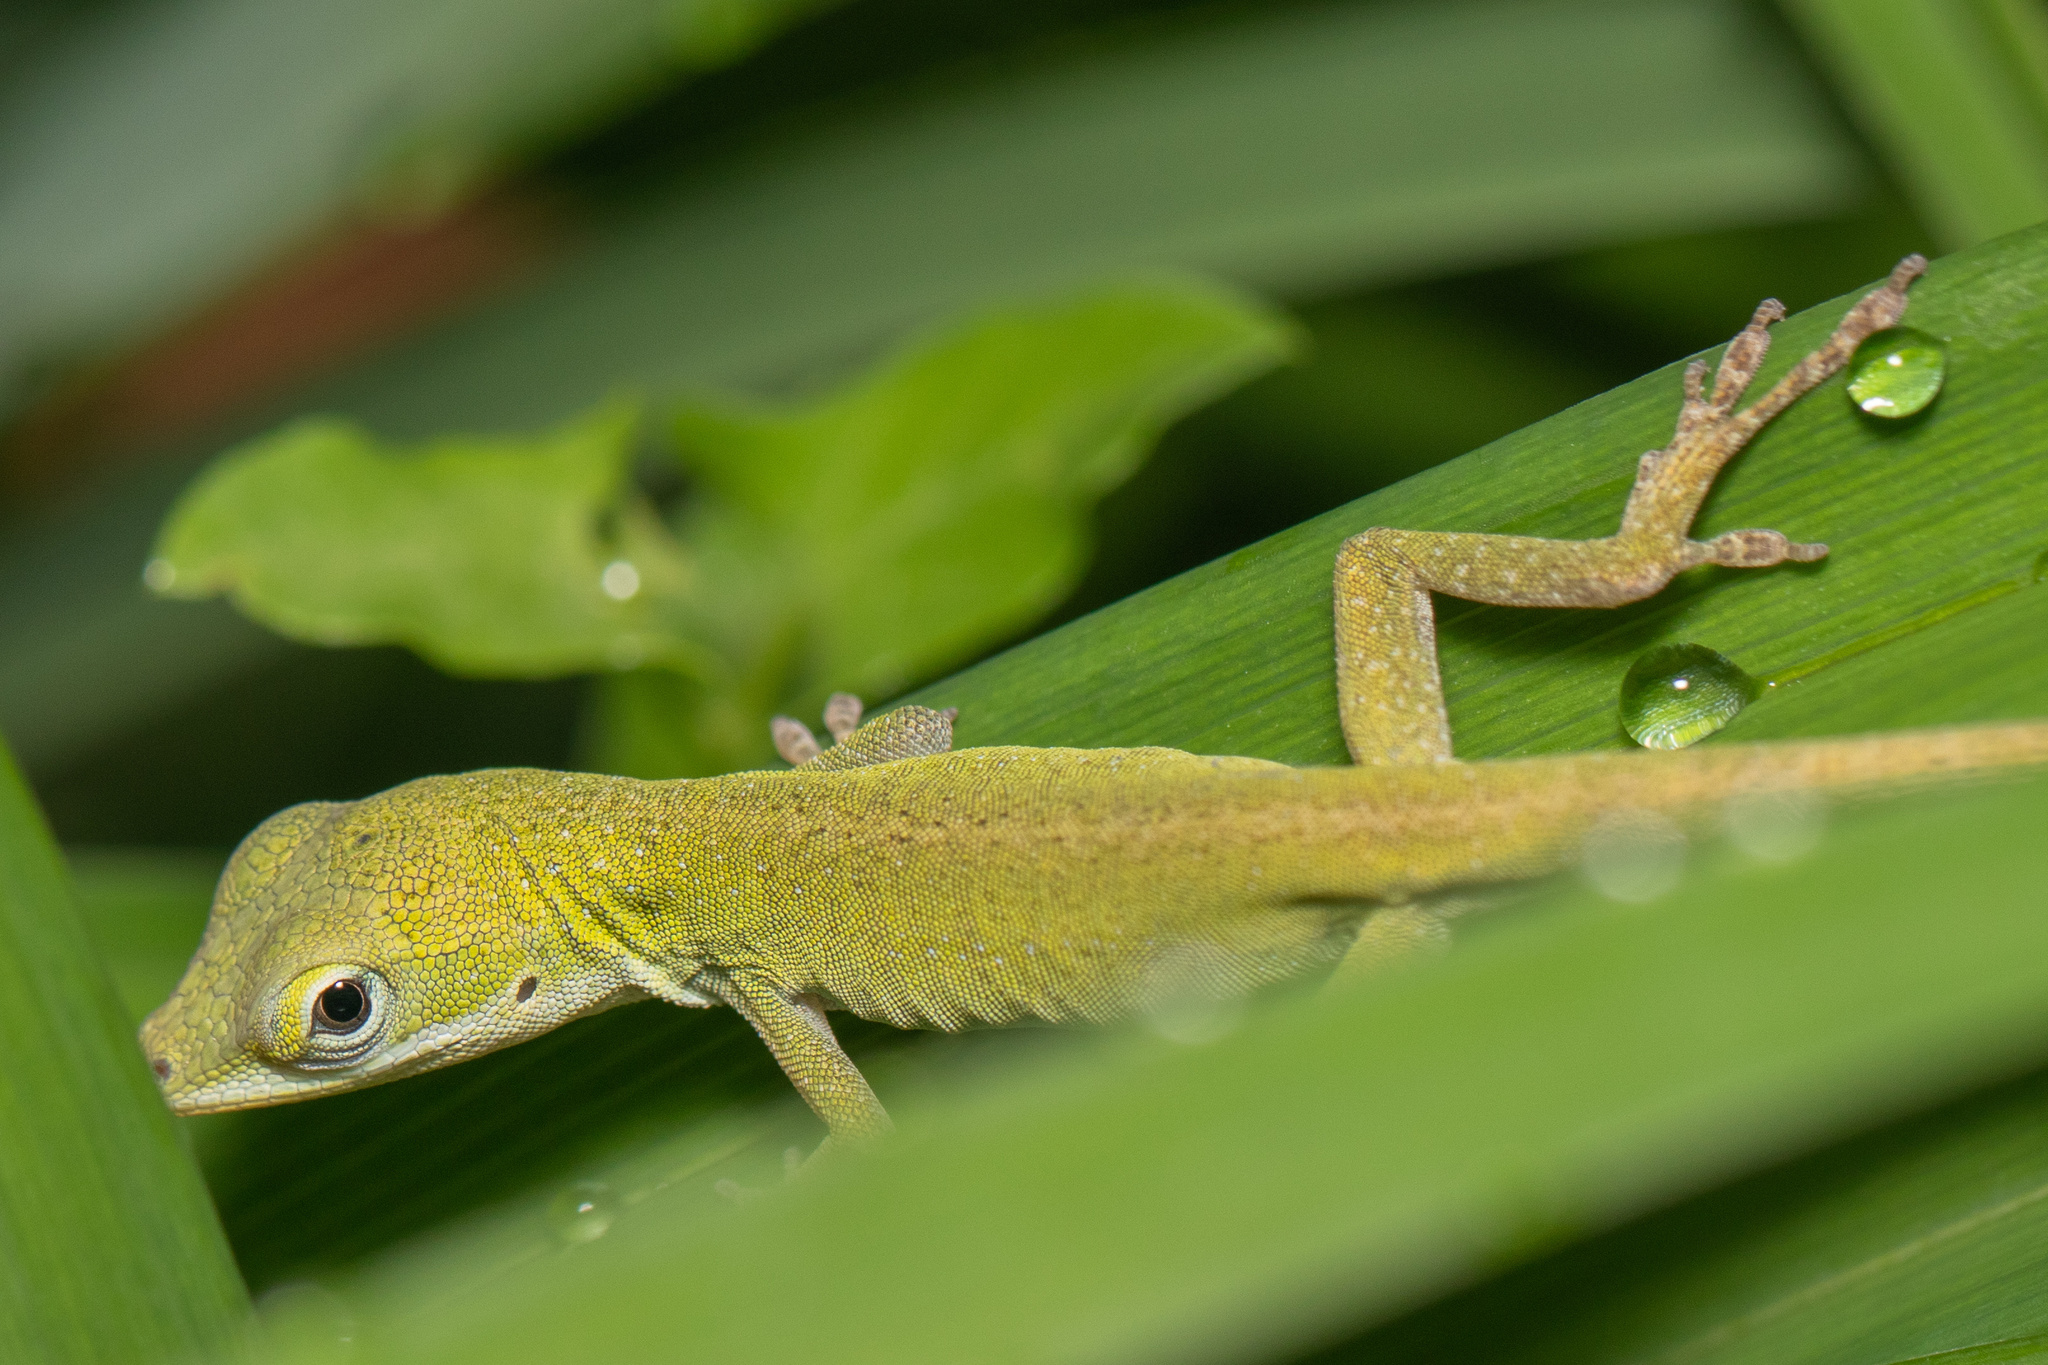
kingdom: Animalia
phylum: Chordata
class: Squamata
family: Dactyloidae
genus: Anolis
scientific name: Anolis carolinensis
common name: Green anole
